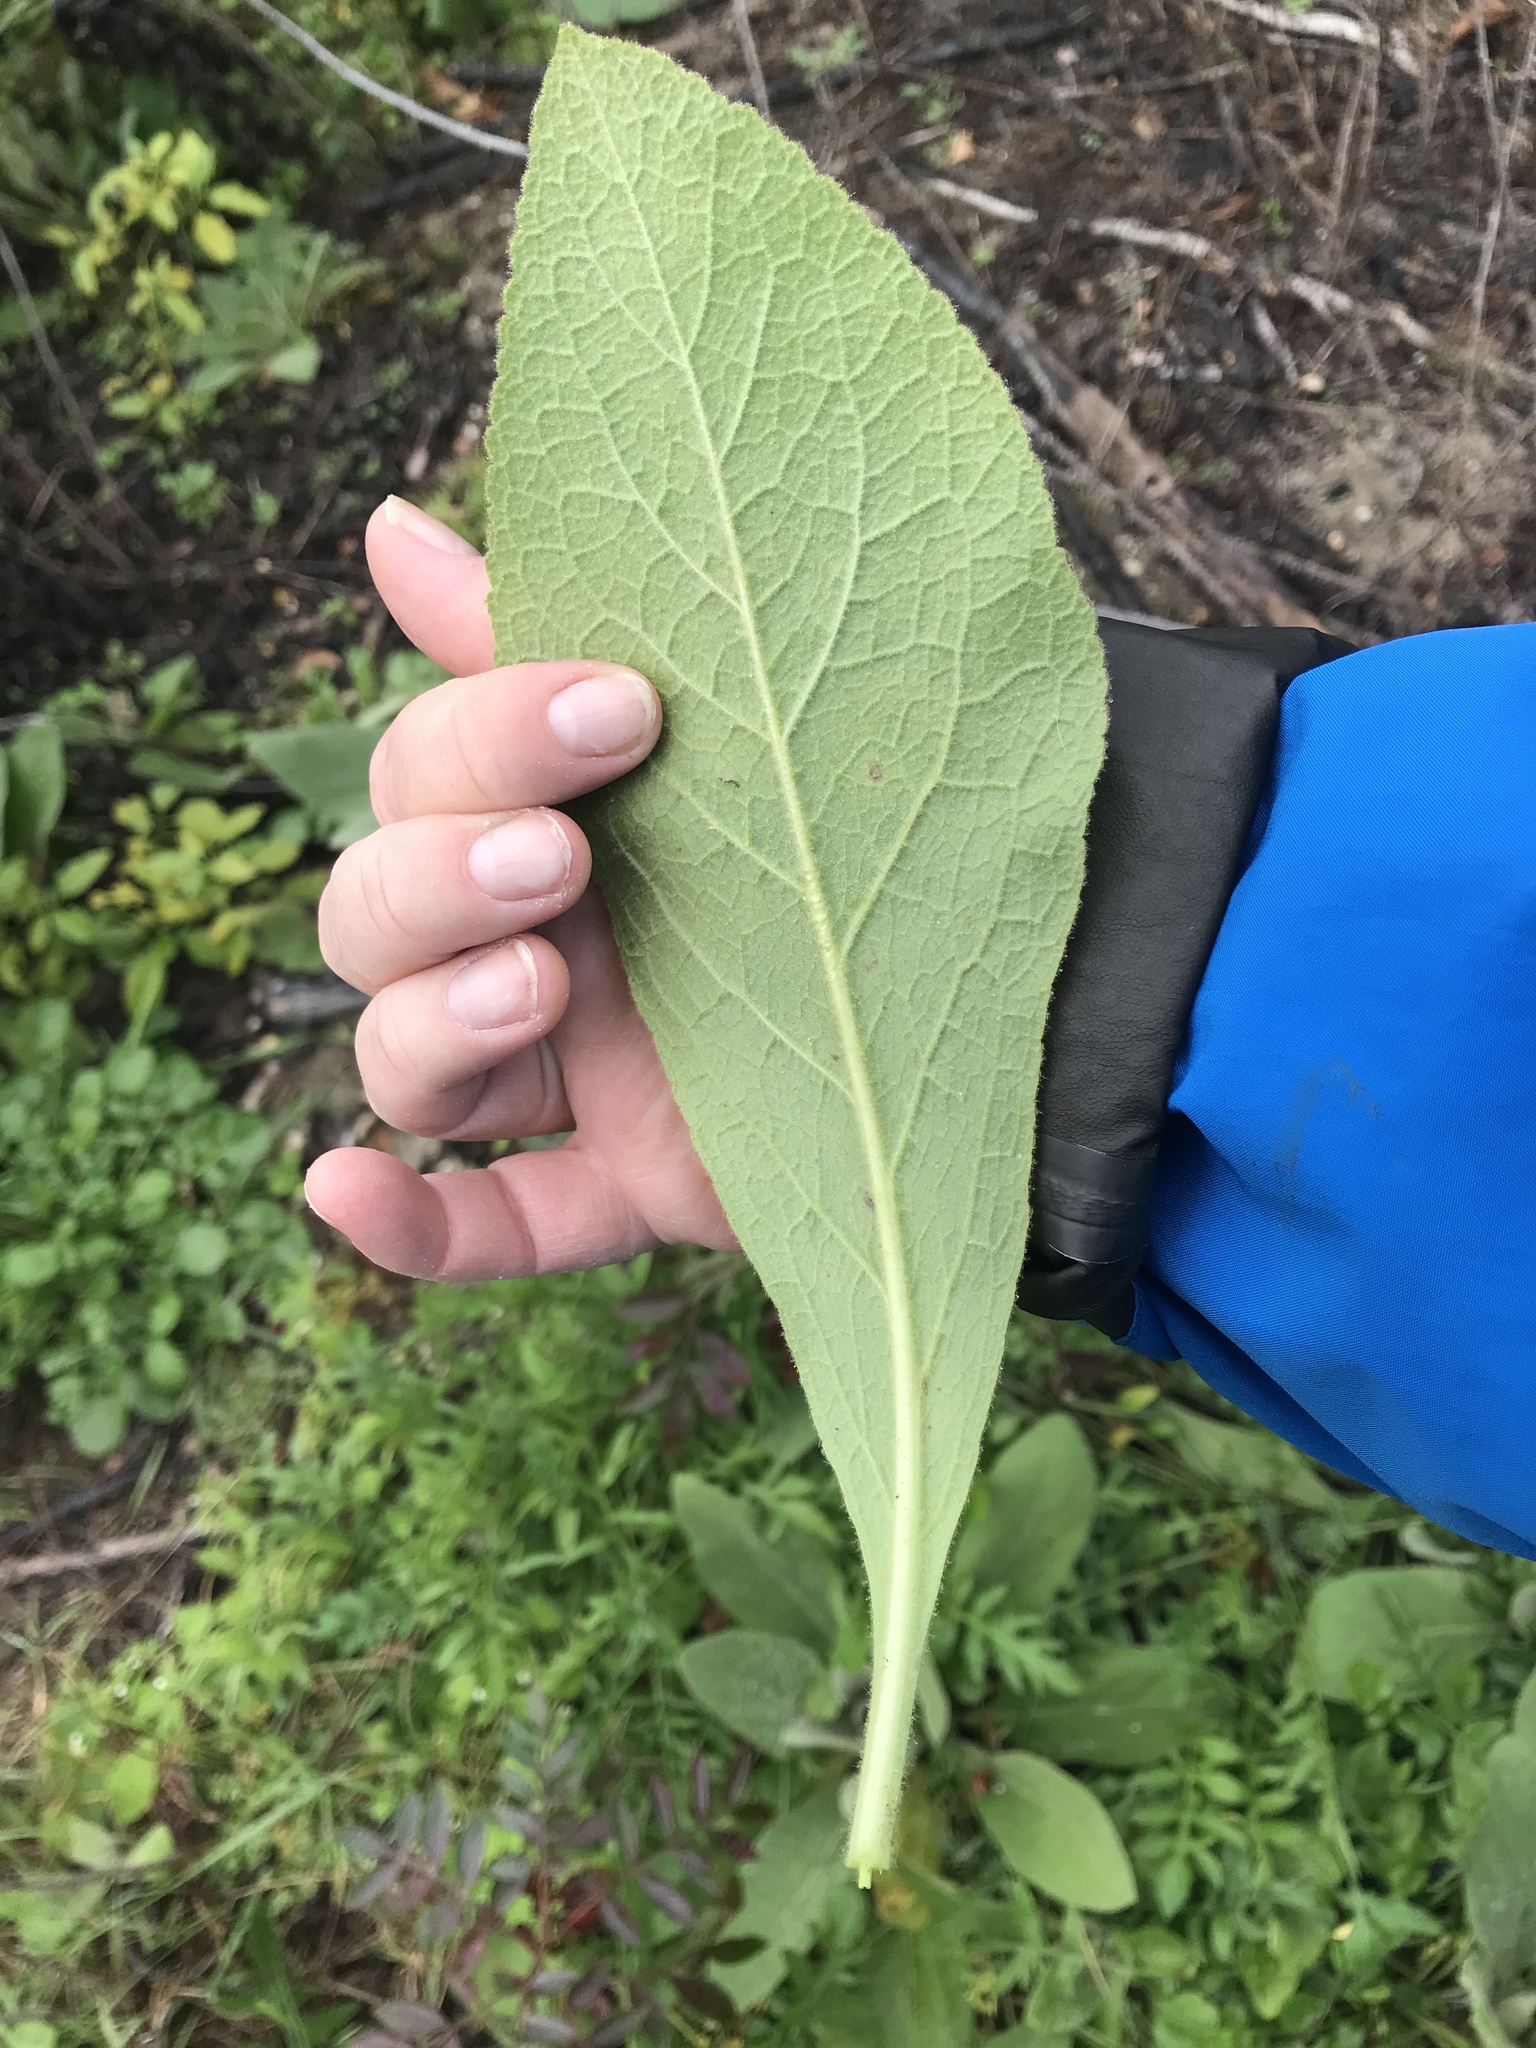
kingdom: Plantae
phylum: Tracheophyta
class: Magnoliopsida
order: Lamiales
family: Scrophulariaceae
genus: Verbascum
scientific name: Verbascum thapsus
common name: Common mullein
